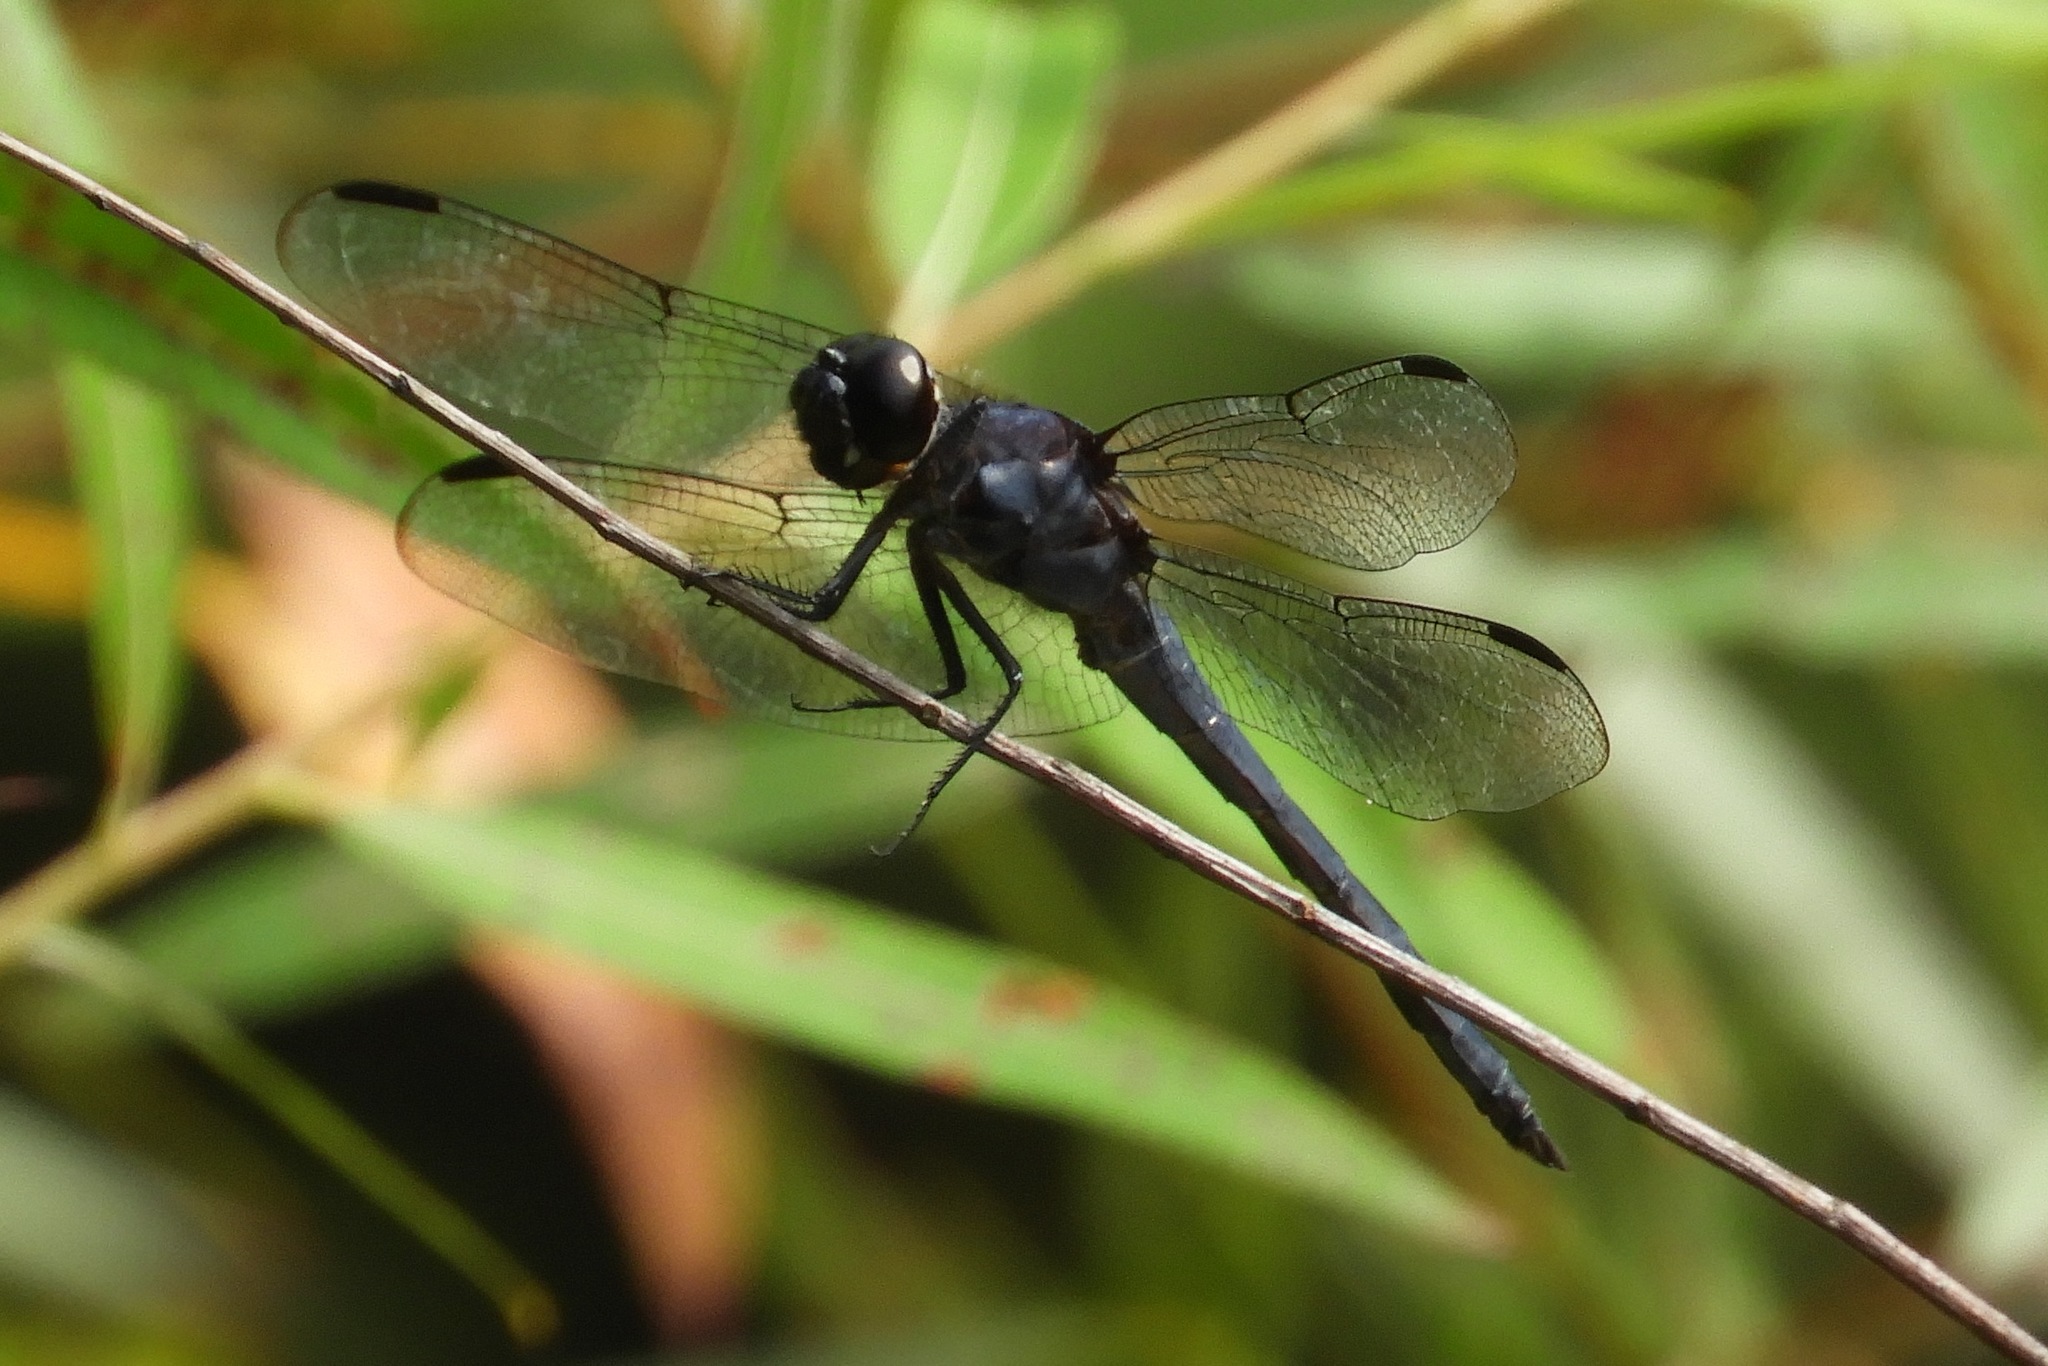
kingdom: Animalia
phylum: Arthropoda
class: Insecta
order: Odonata
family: Libellulidae
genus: Libellula
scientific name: Libellula incesta
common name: Slaty skimmer
